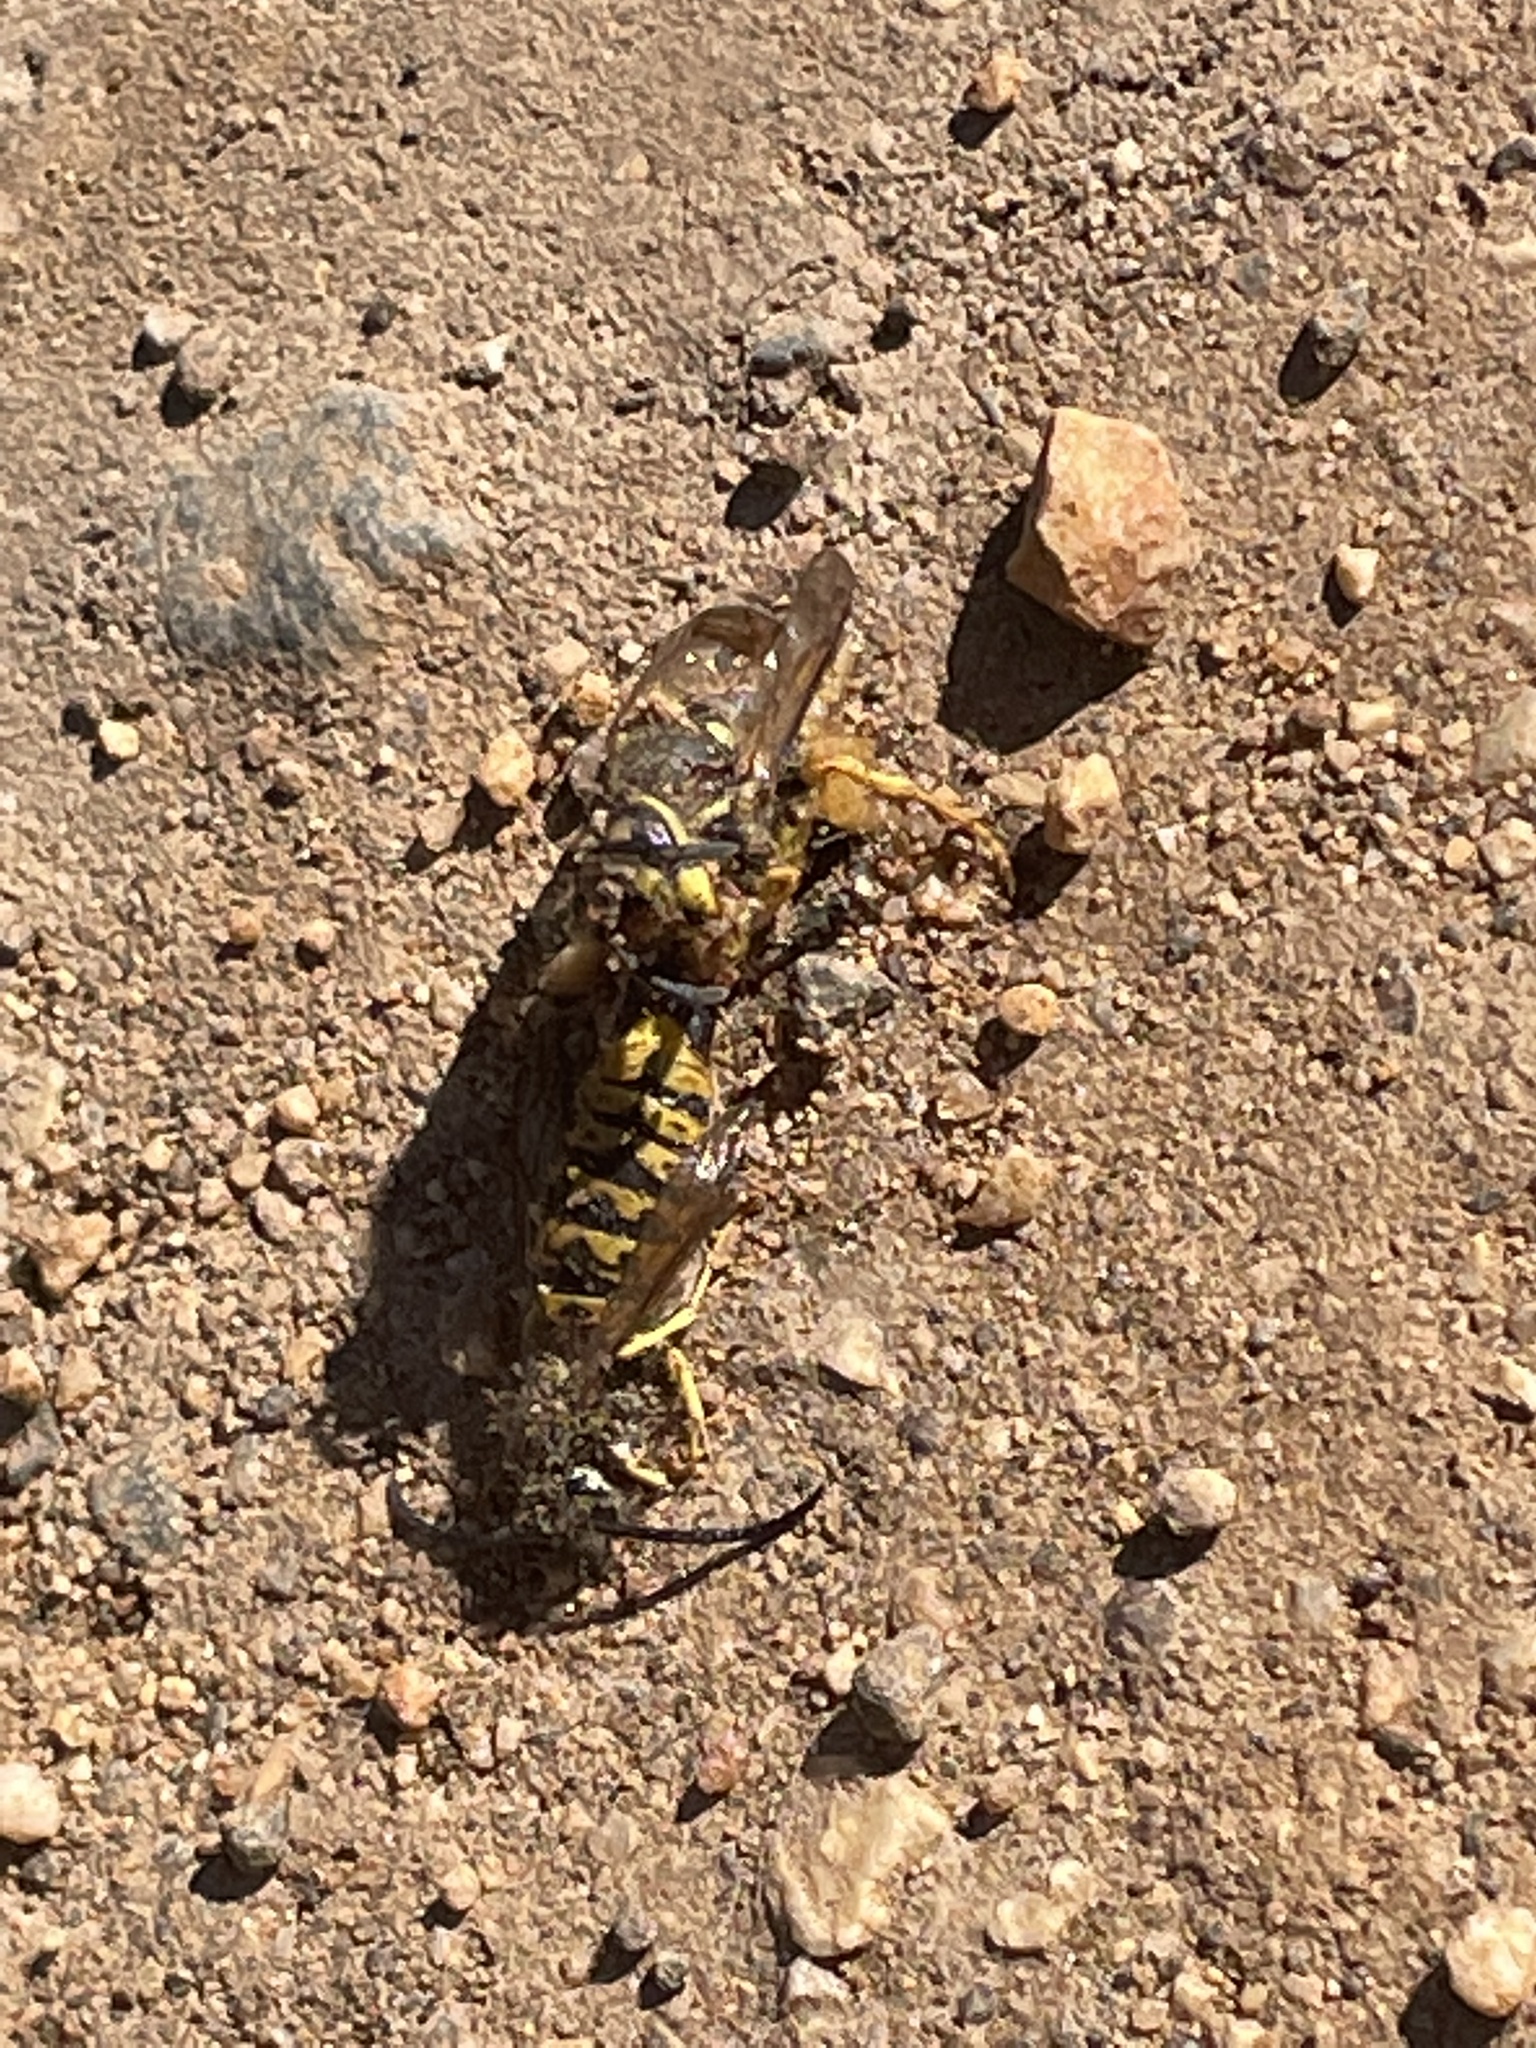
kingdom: Animalia
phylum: Arthropoda
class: Insecta
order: Hymenoptera
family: Vespidae
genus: Vespula
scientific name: Vespula germanica
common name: German wasp
